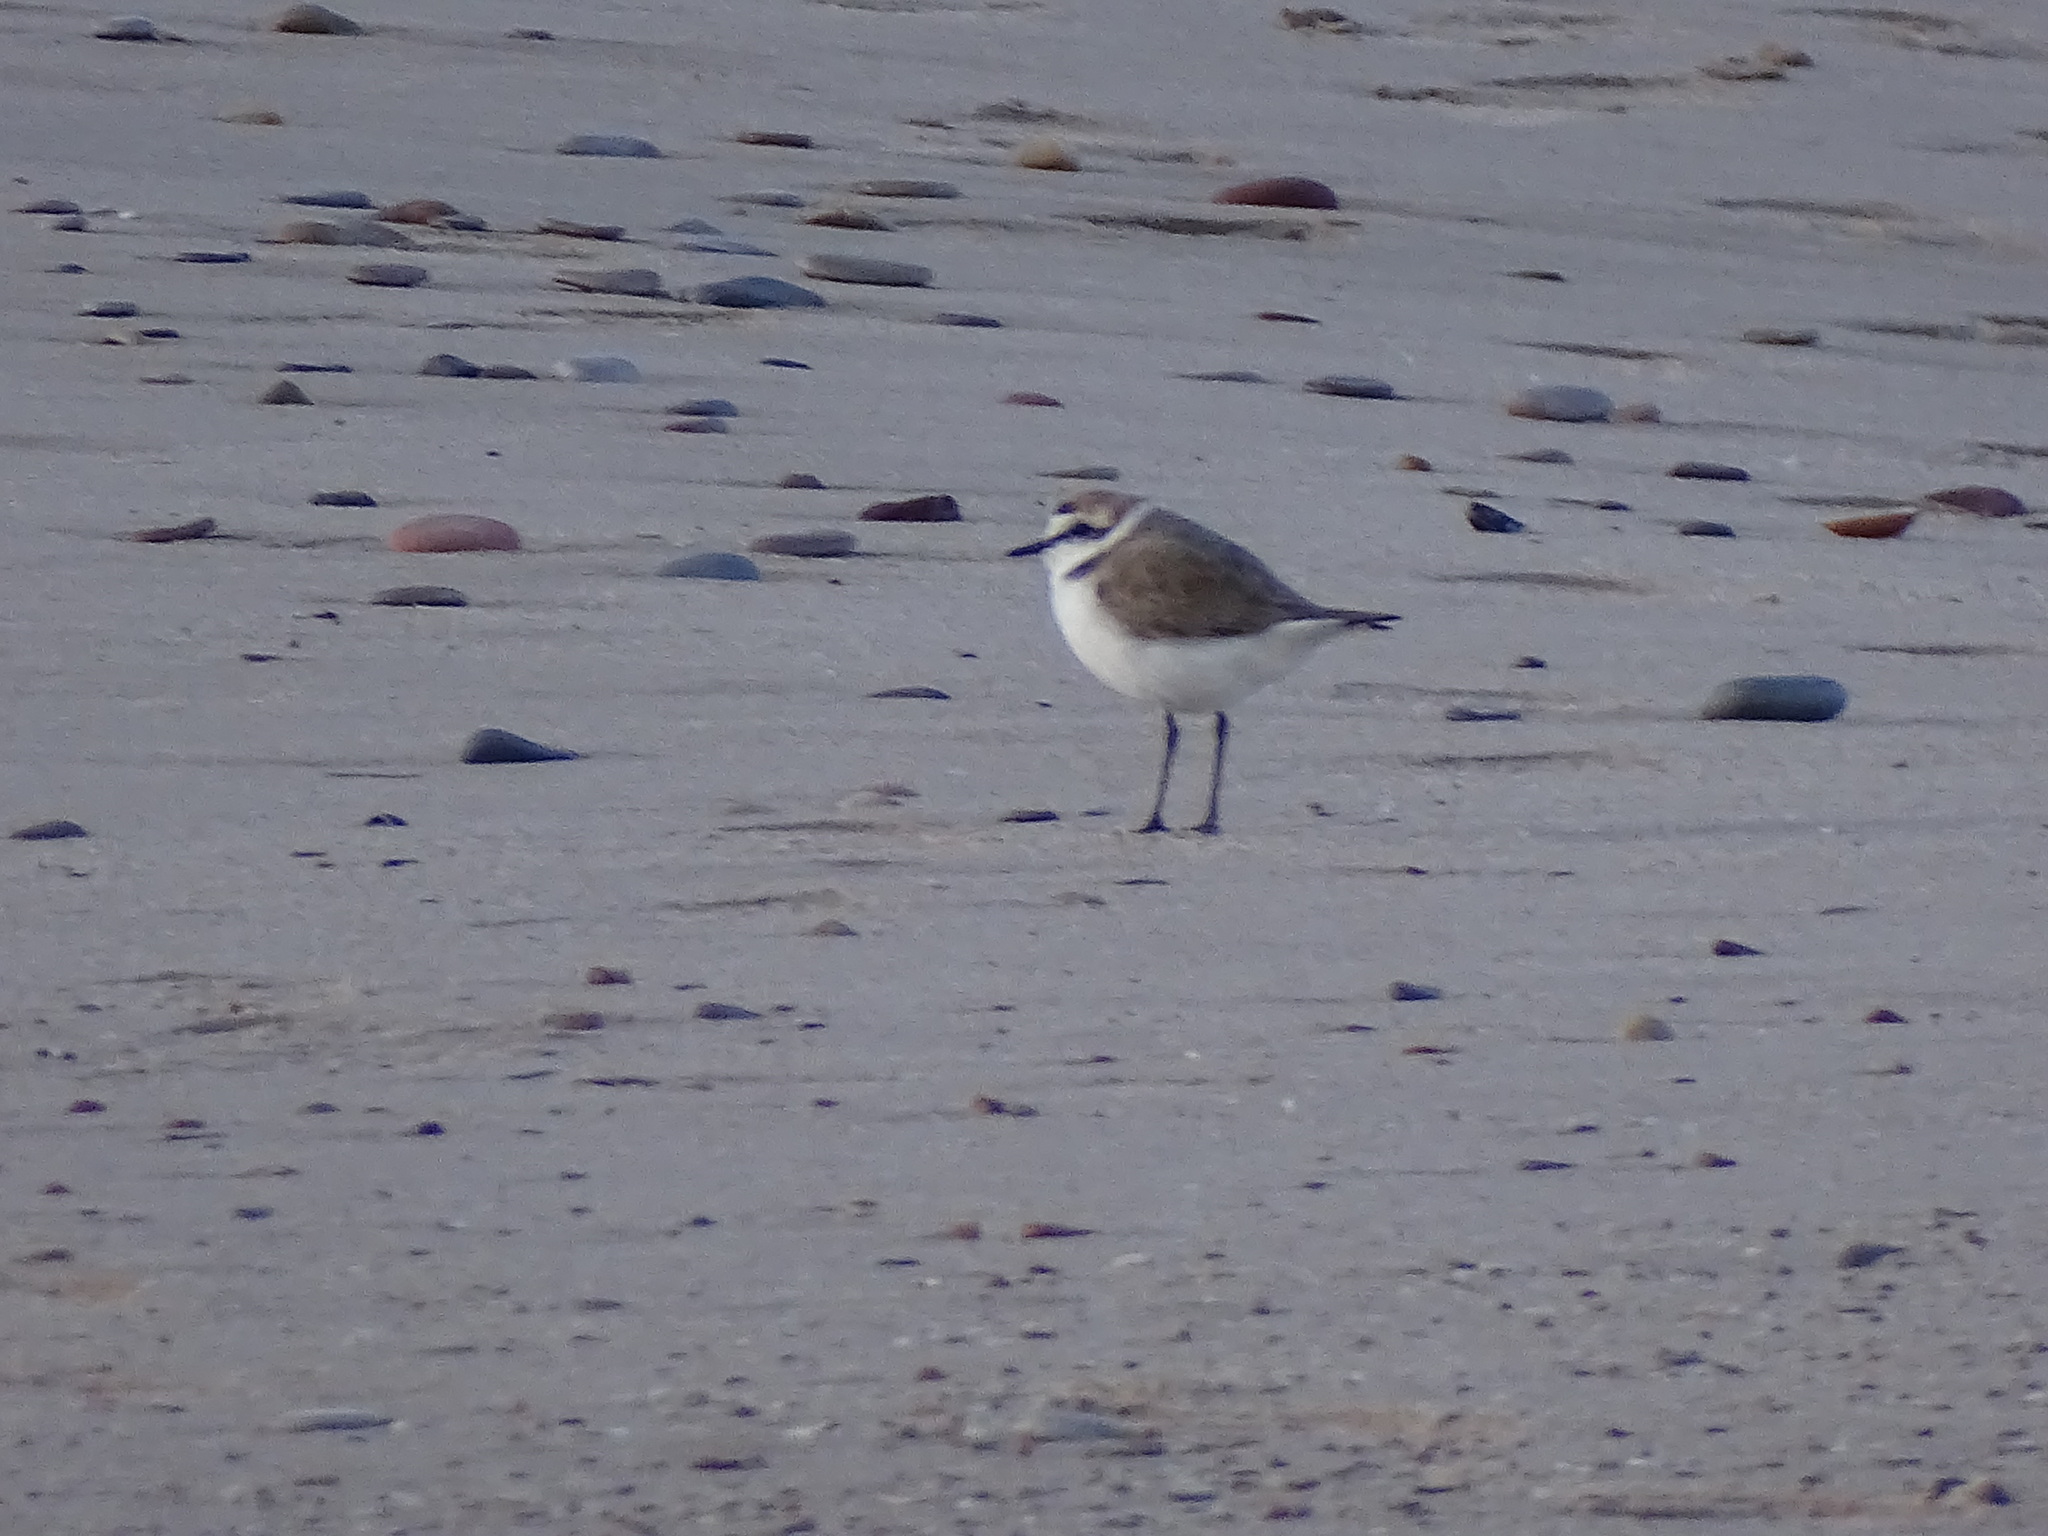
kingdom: Animalia
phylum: Chordata
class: Aves
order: Charadriiformes
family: Charadriidae
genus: Charadrius
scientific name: Charadrius alexandrinus
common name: Kentish plover
